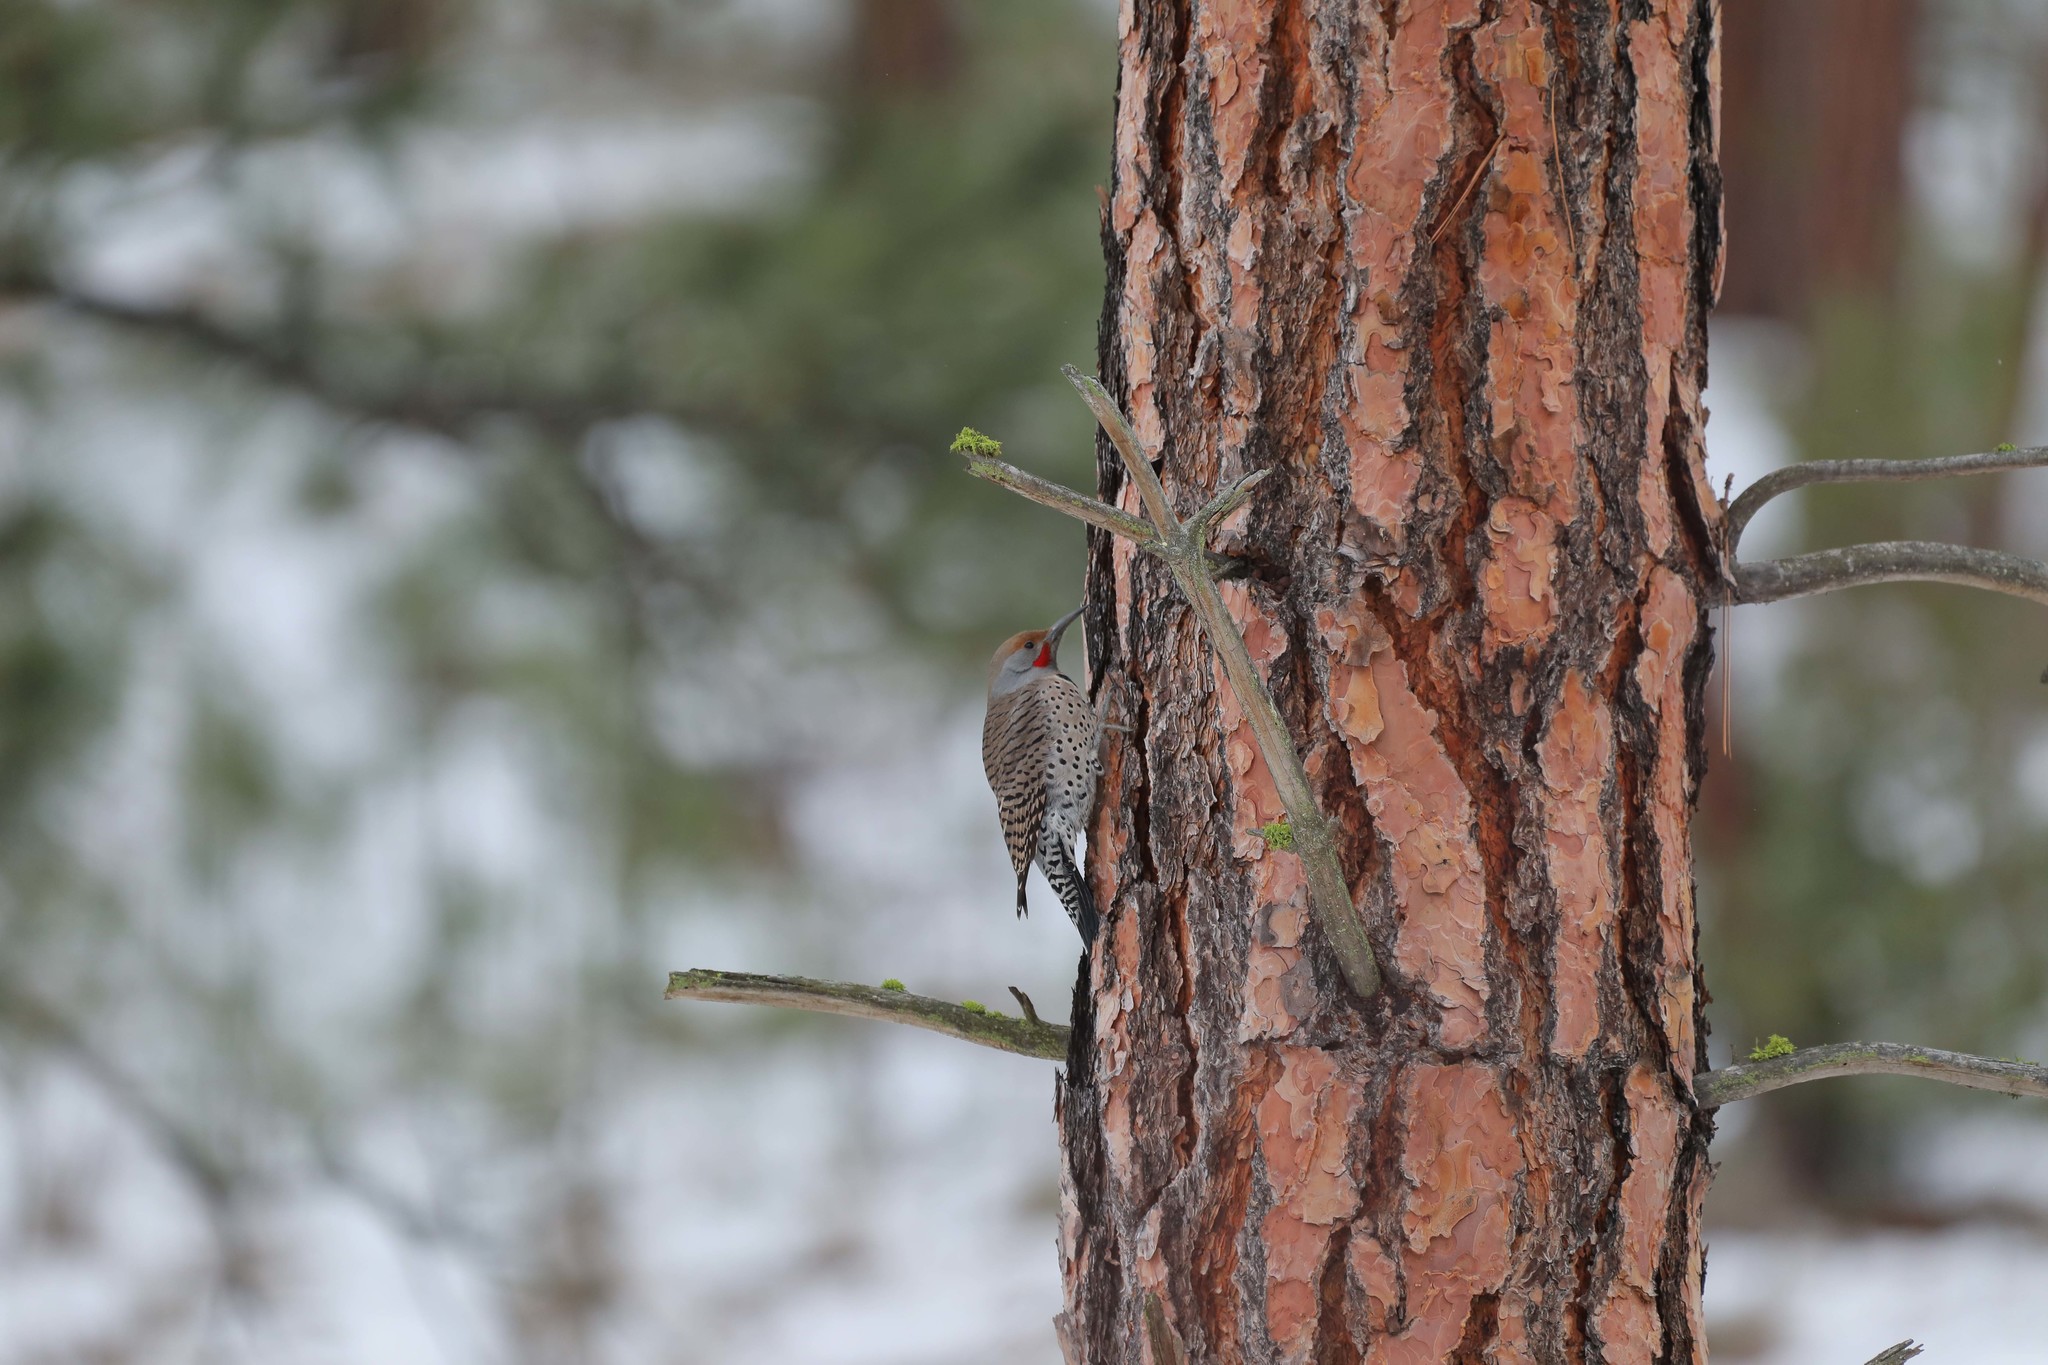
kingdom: Animalia
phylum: Chordata
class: Aves
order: Piciformes
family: Picidae
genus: Colaptes
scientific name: Colaptes auratus
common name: Northern flicker
